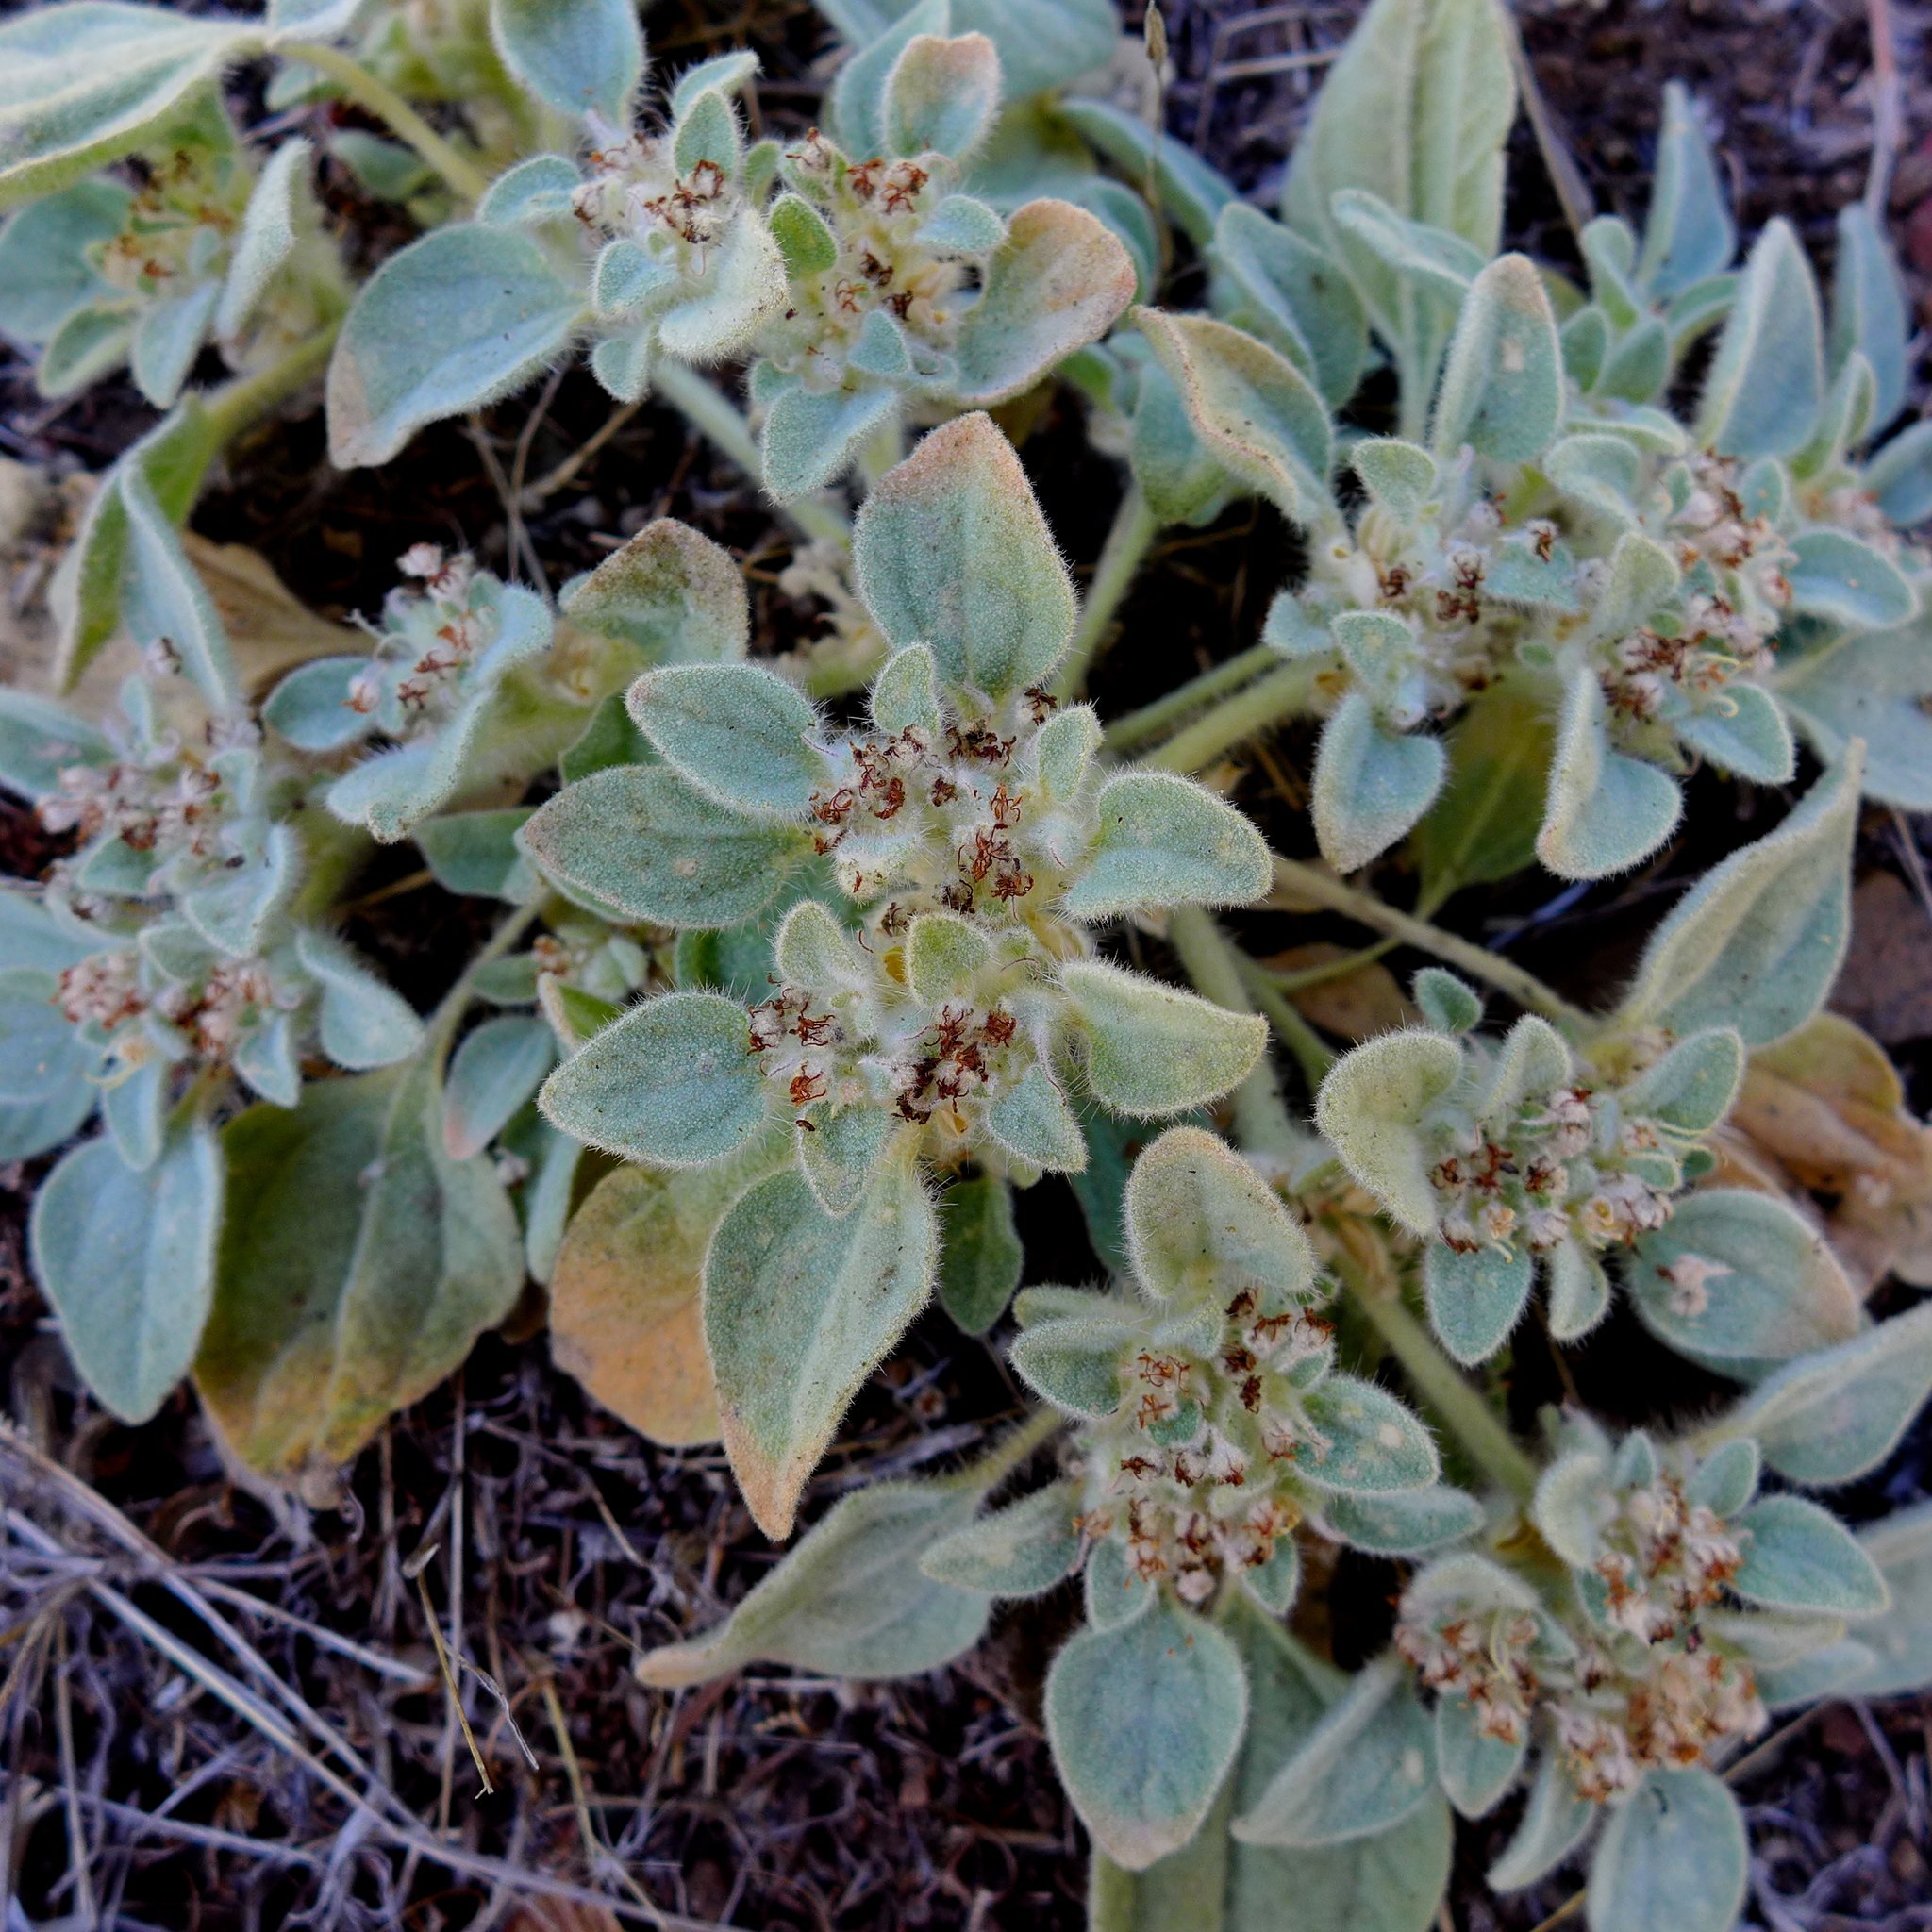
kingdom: Plantae
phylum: Tracheophyta
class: Magnoliopsida
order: Malpighiales
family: Euphorbiaceae
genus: Croton
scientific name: Croton setiger
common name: Dove weed
